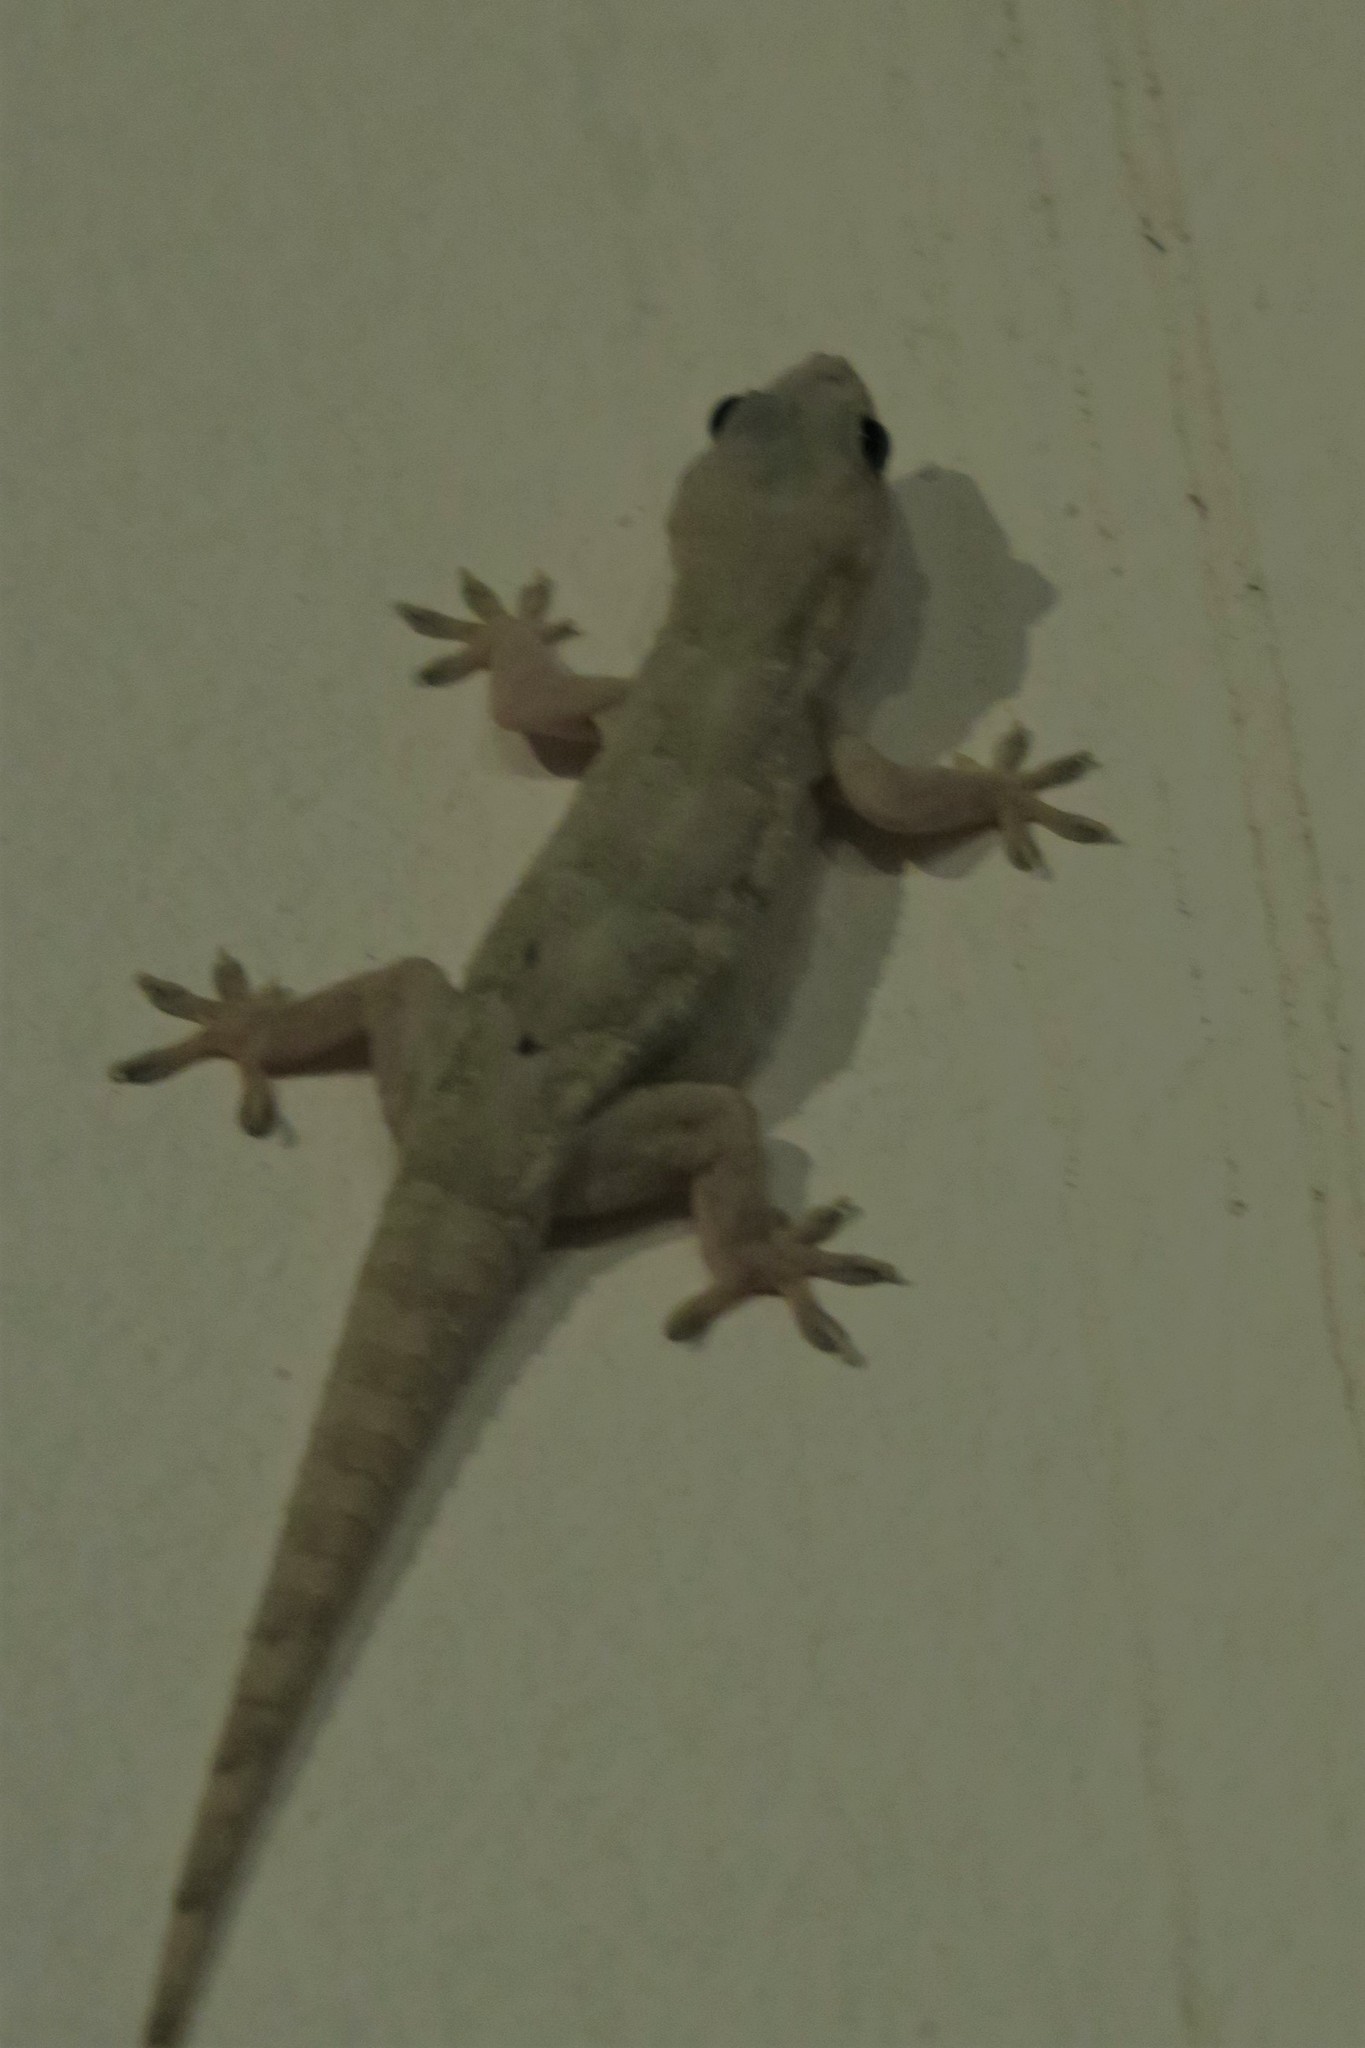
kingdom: Animalia
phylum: Chordata
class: Squamata
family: Gekkonidae
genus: Hemidactylus
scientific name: Hemidactylus mabouia
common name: House gecko
